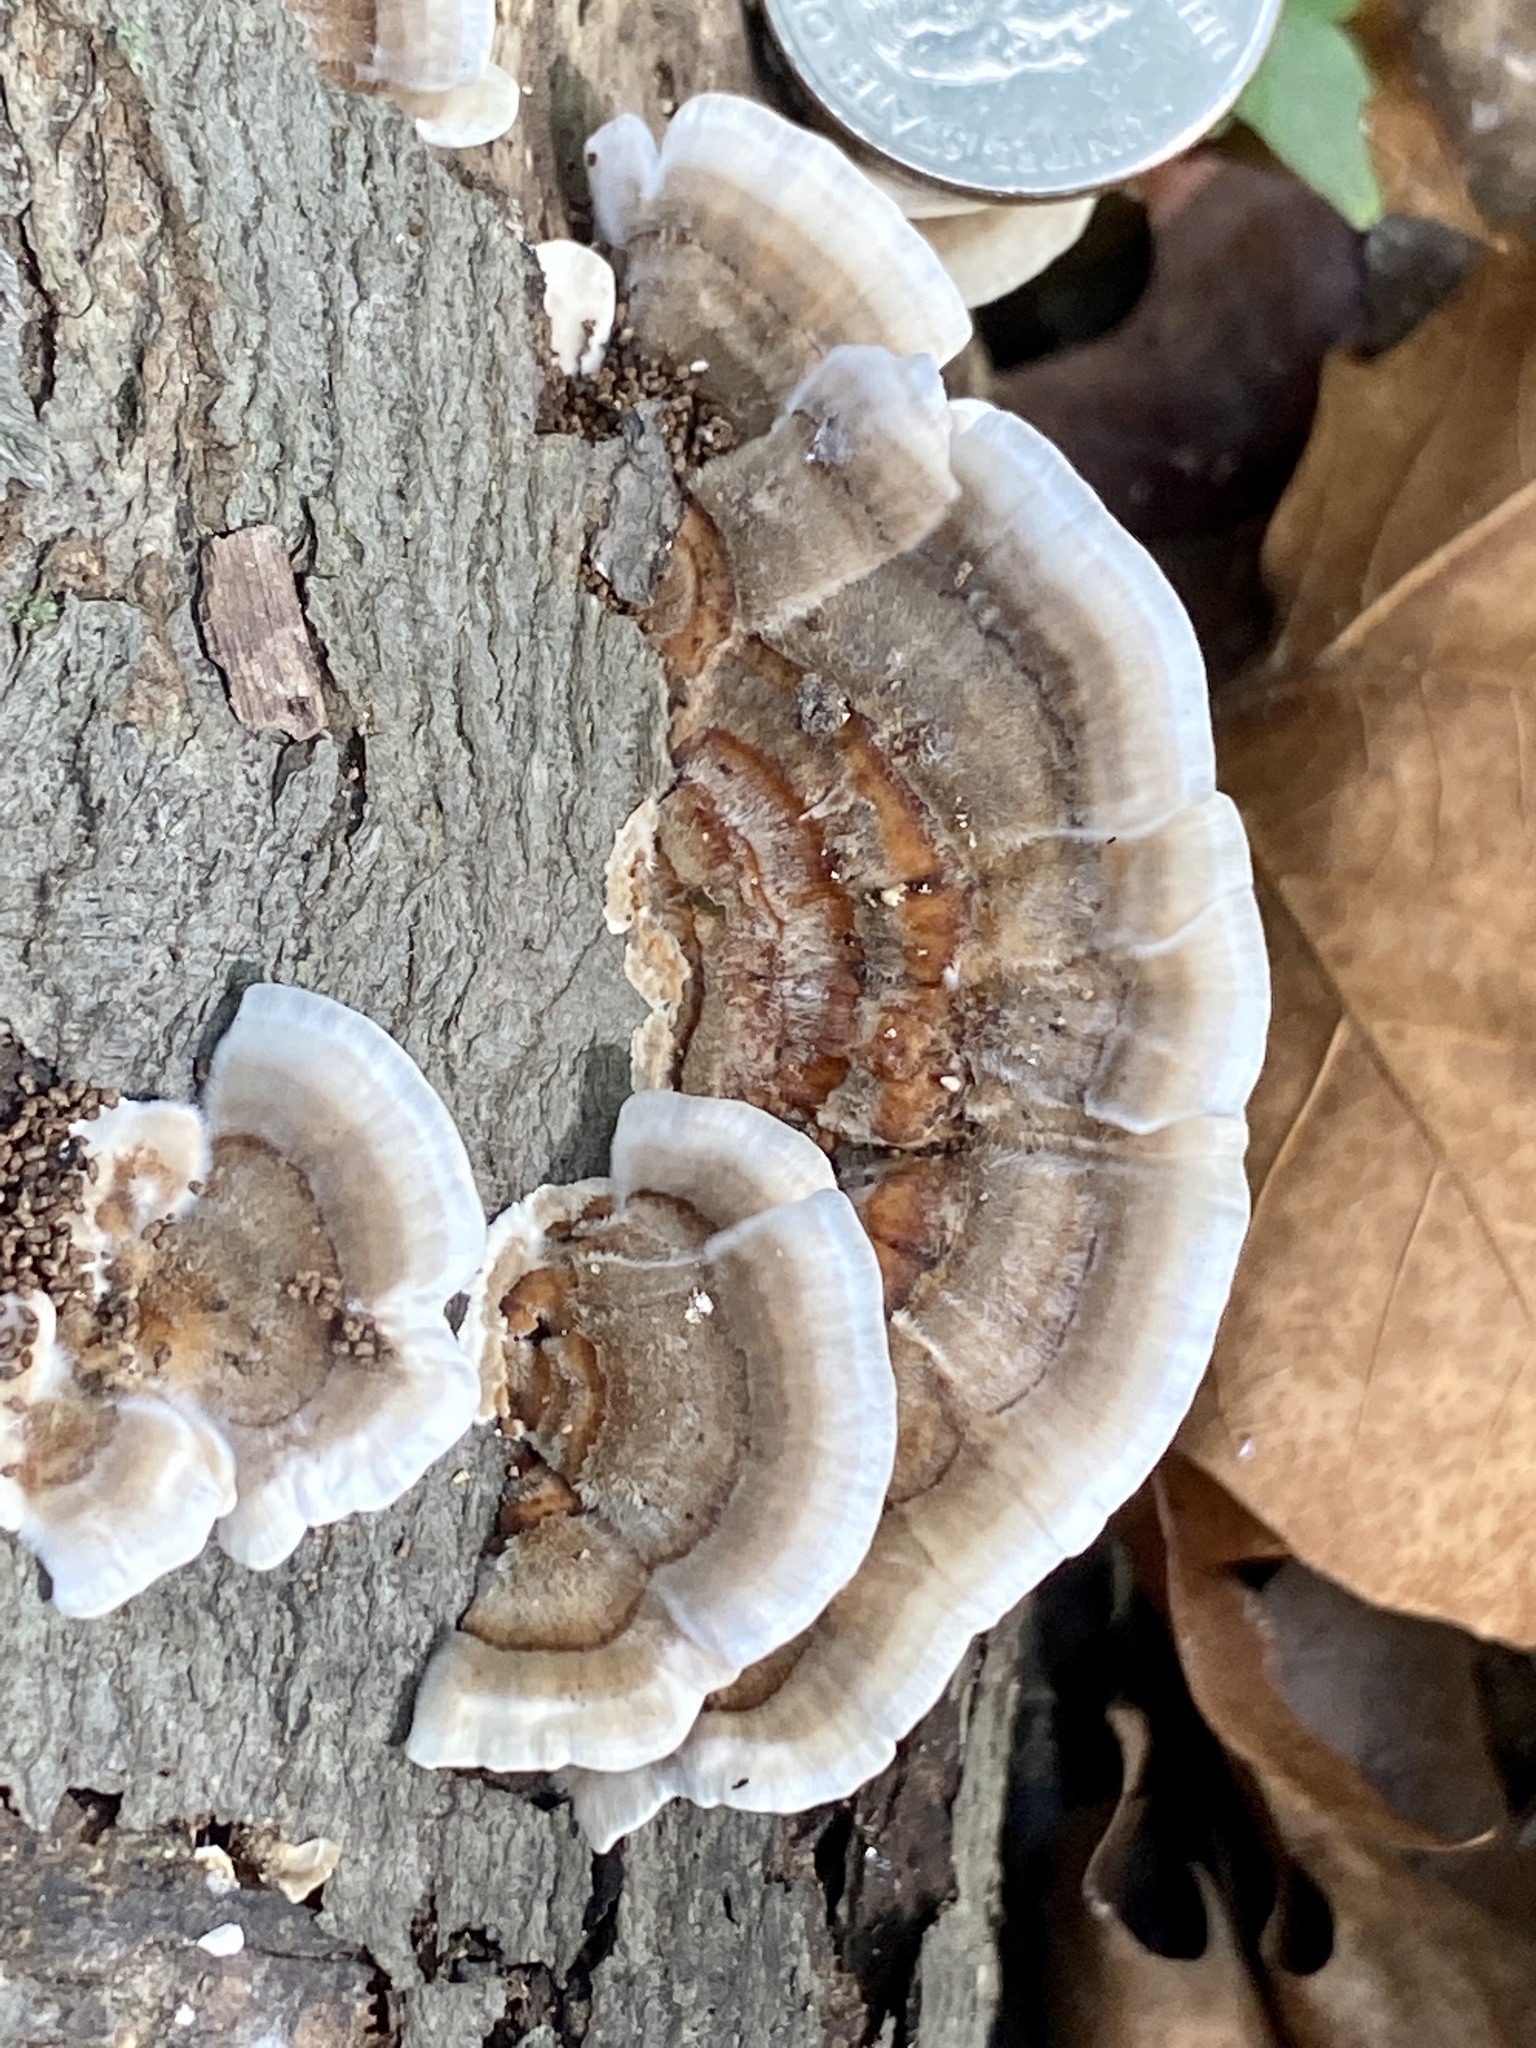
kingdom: Fungi
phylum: Basidiomycota
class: Agaricomycetes
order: Polyporales
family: Polyporaceae
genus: Trametes
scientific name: Trametes versicolor
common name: Turkeytail
